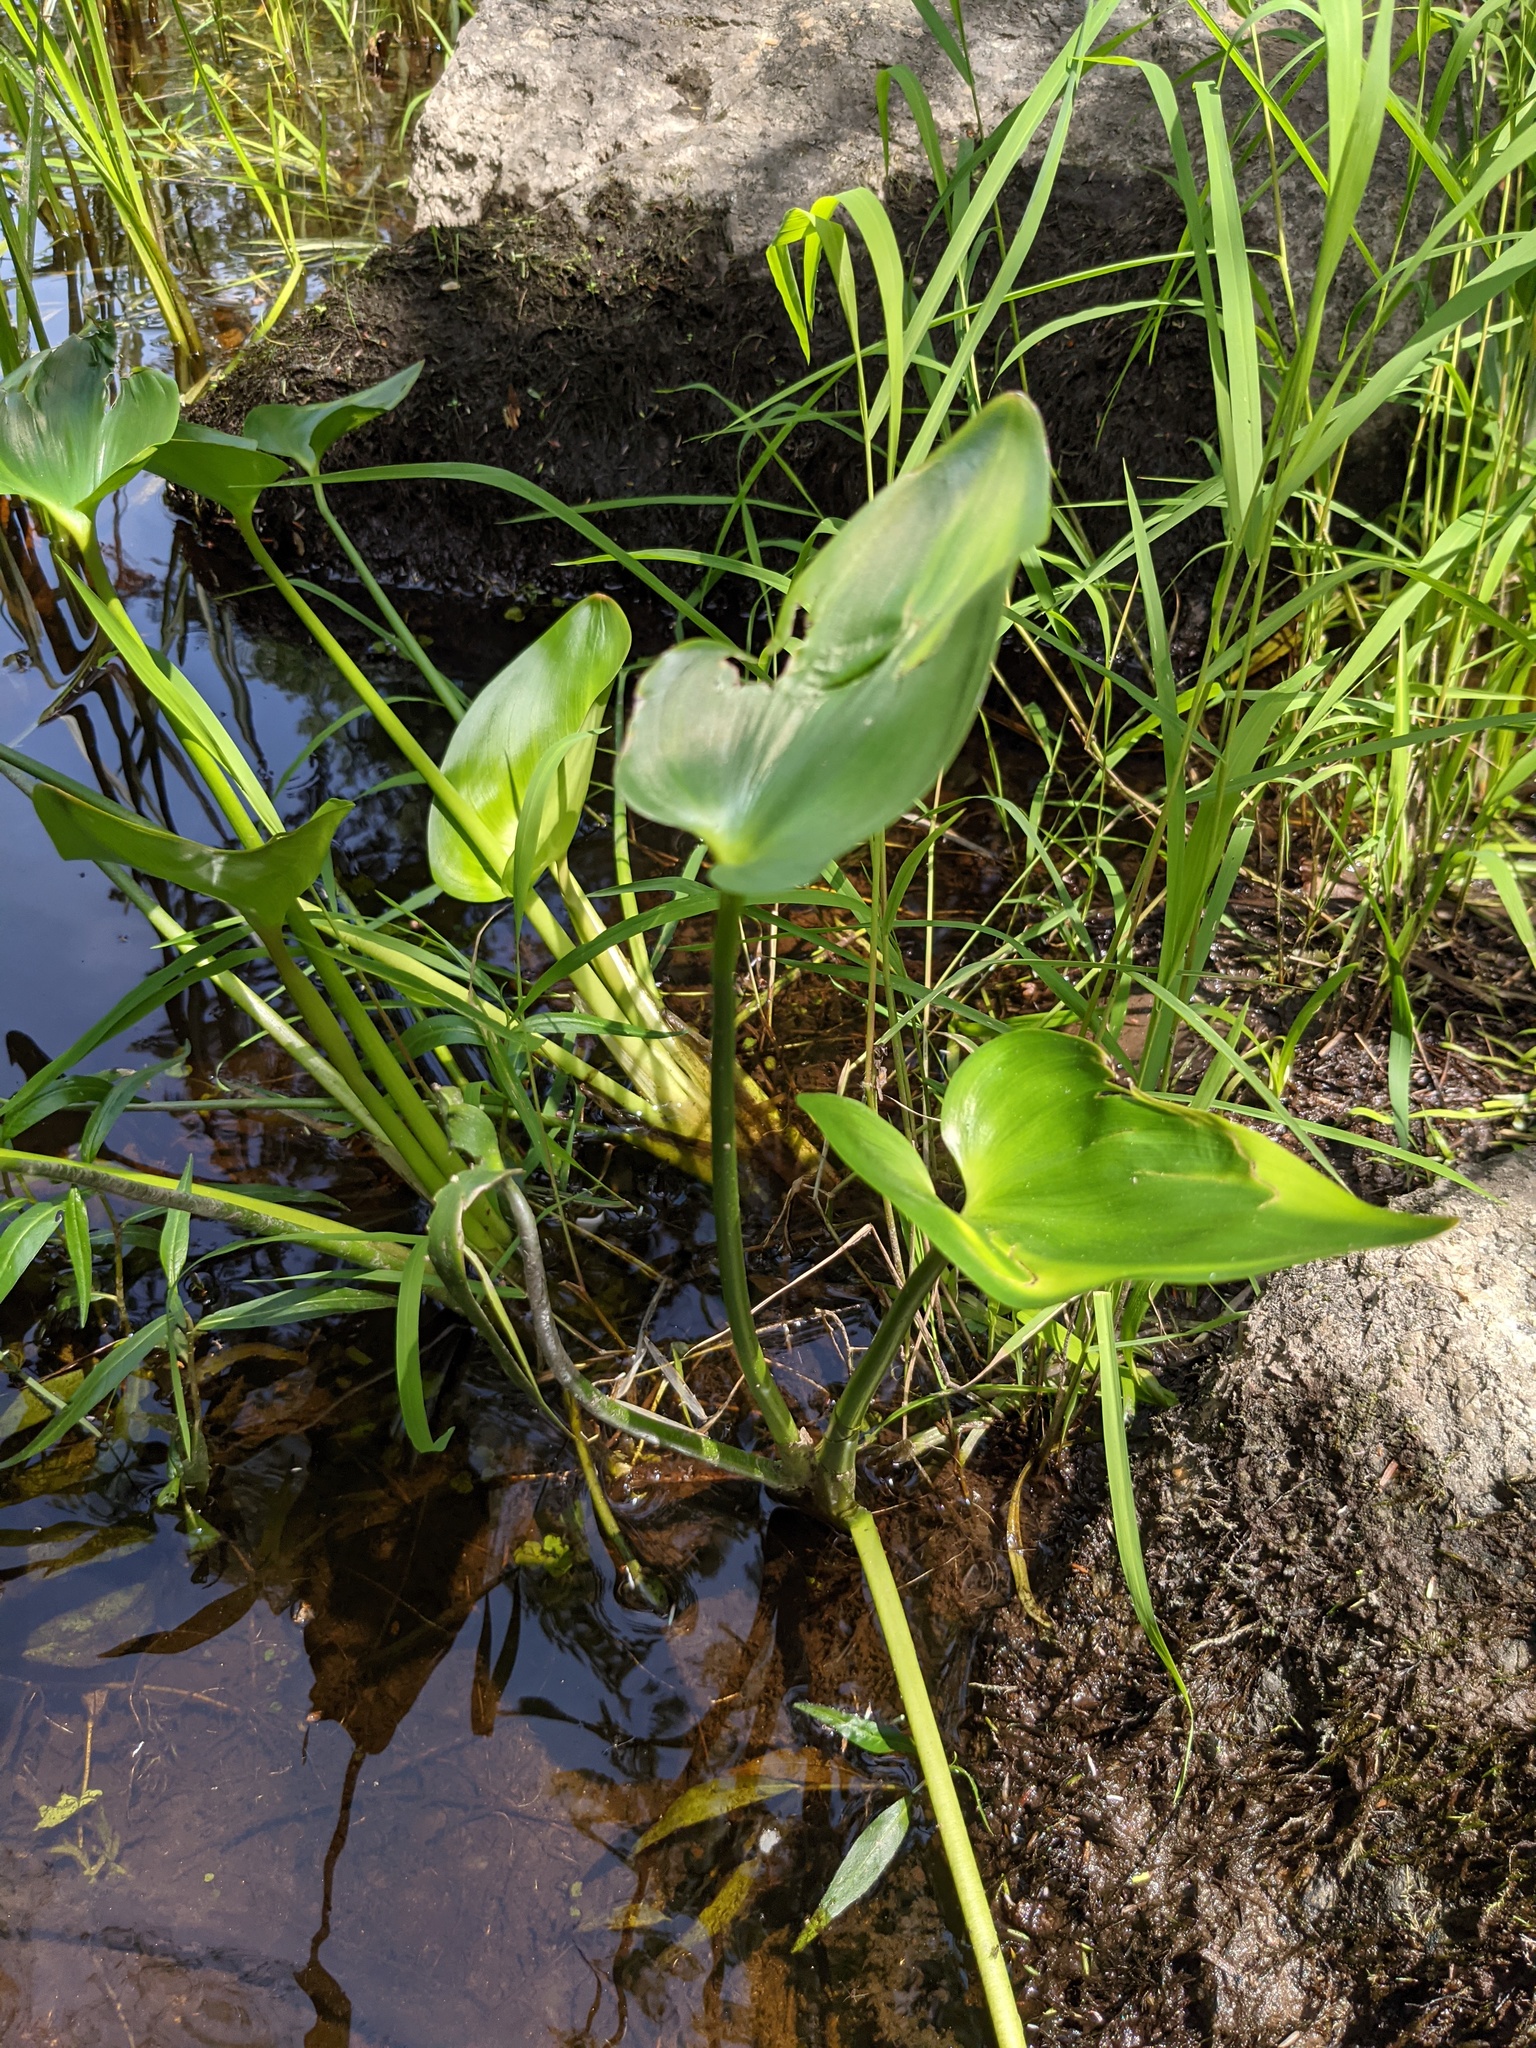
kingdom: Plantae
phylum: Tracheophyta
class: Liliopsida
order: Commelinales
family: Pontederiaceae
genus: Pontederia
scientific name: Pontederia cordata
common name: Pickerelweed
